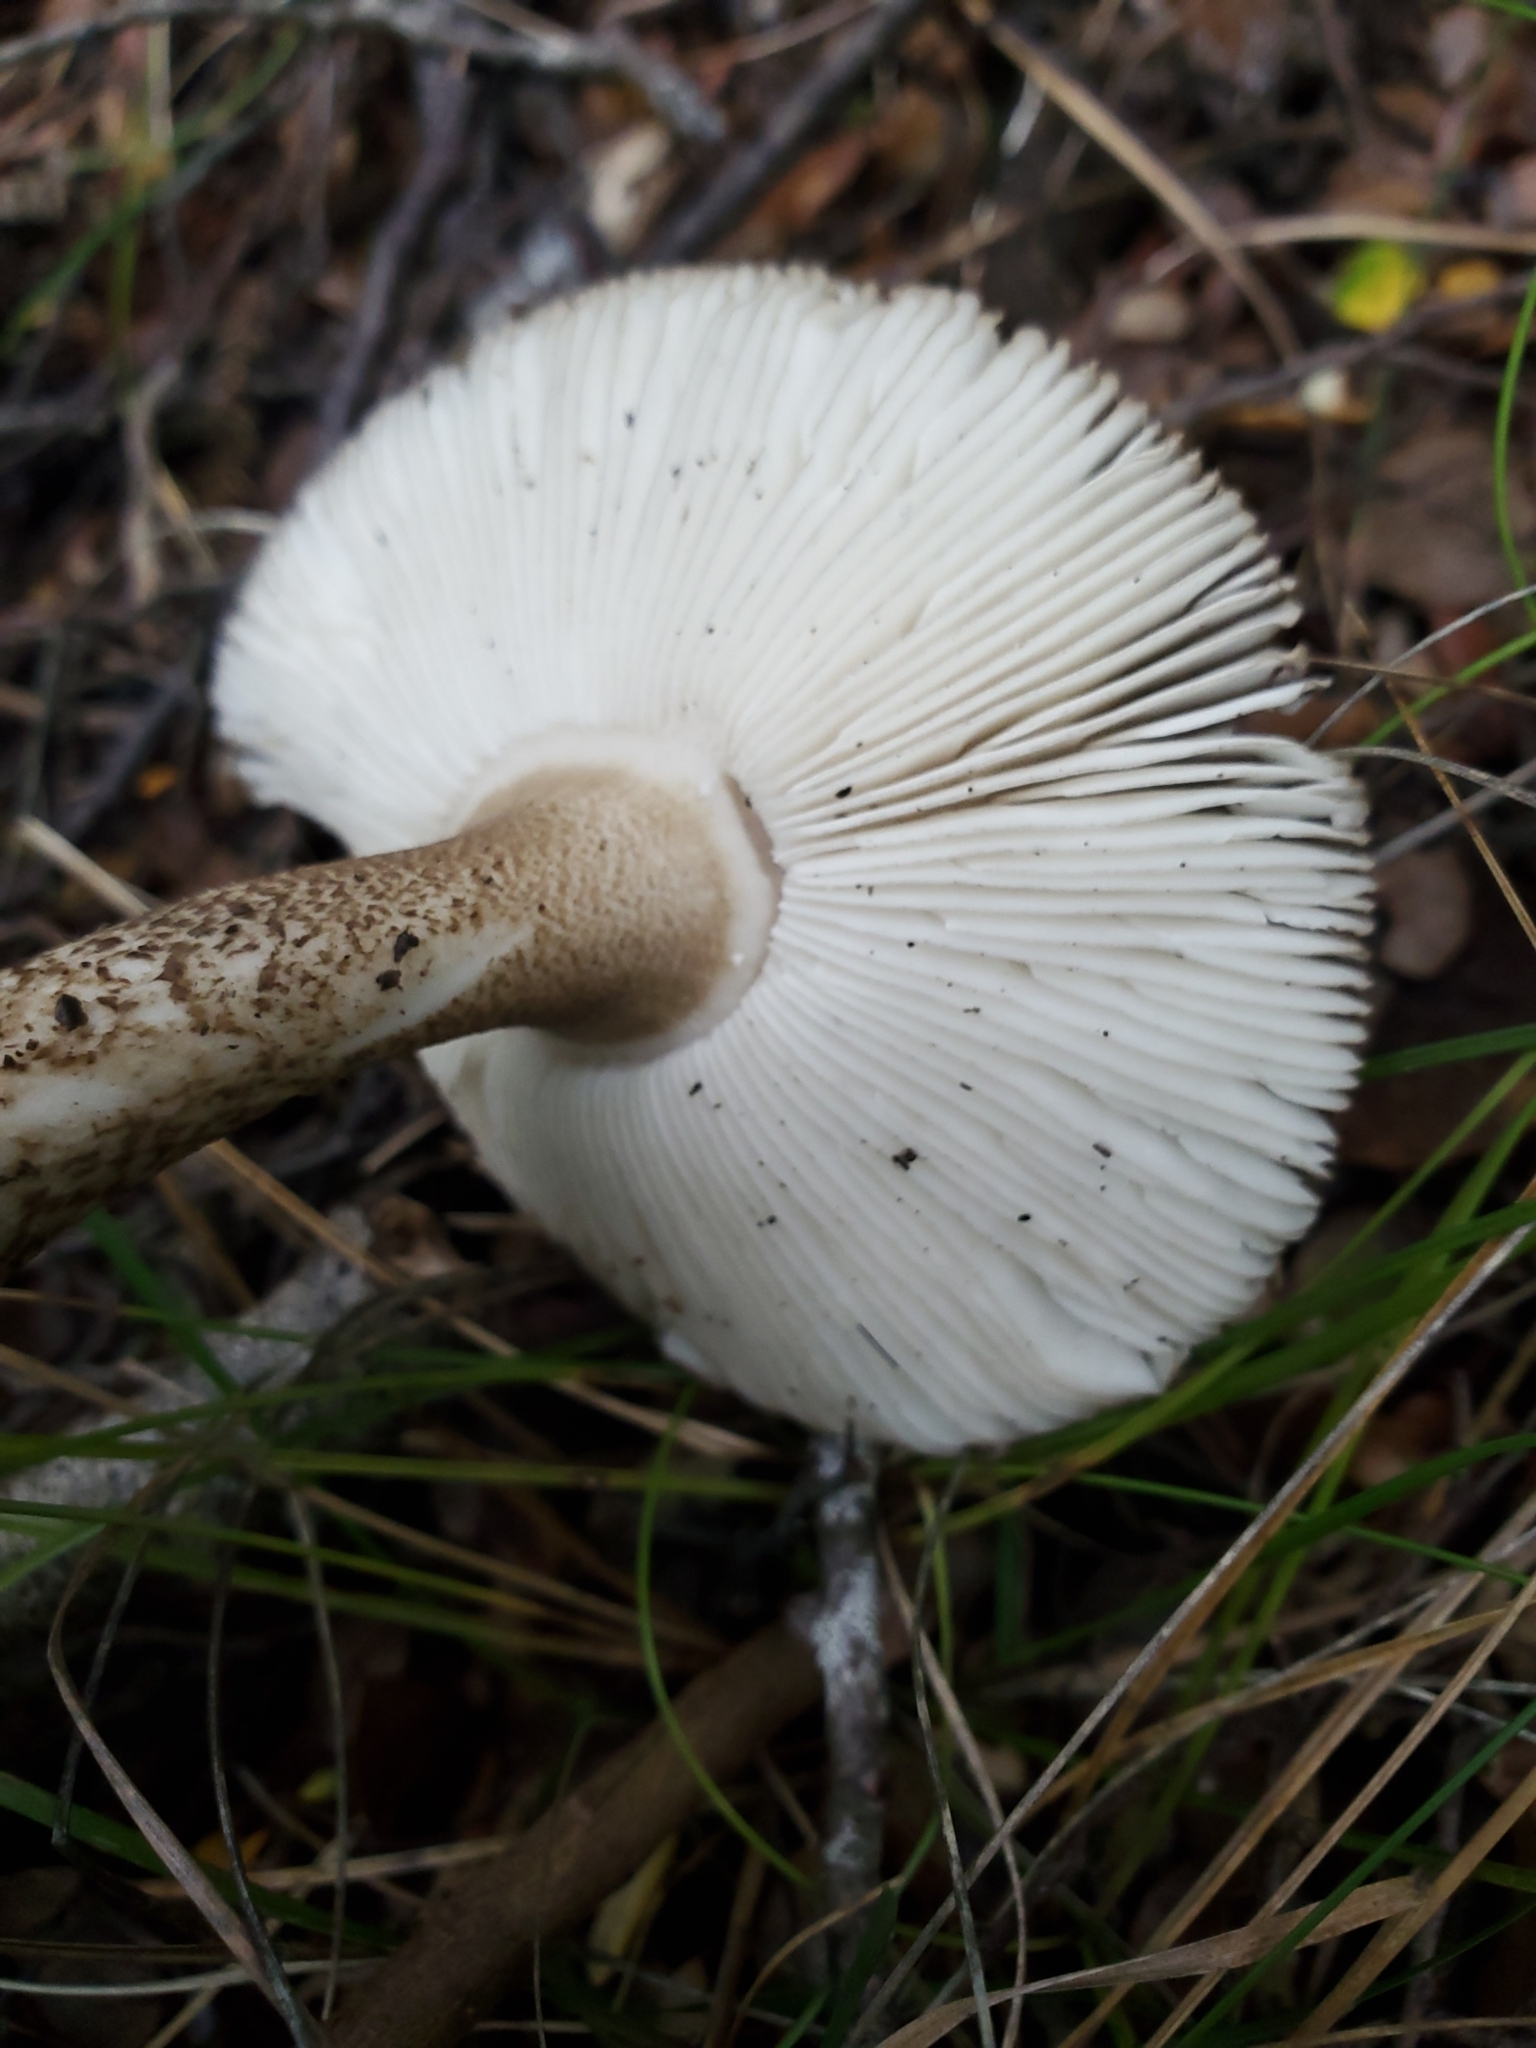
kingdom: Fungi
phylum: Basidiomycota
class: Agaricomycetes
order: Agaricales
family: Amanitaceae
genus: Amanita
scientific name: Amanita pekeoides
